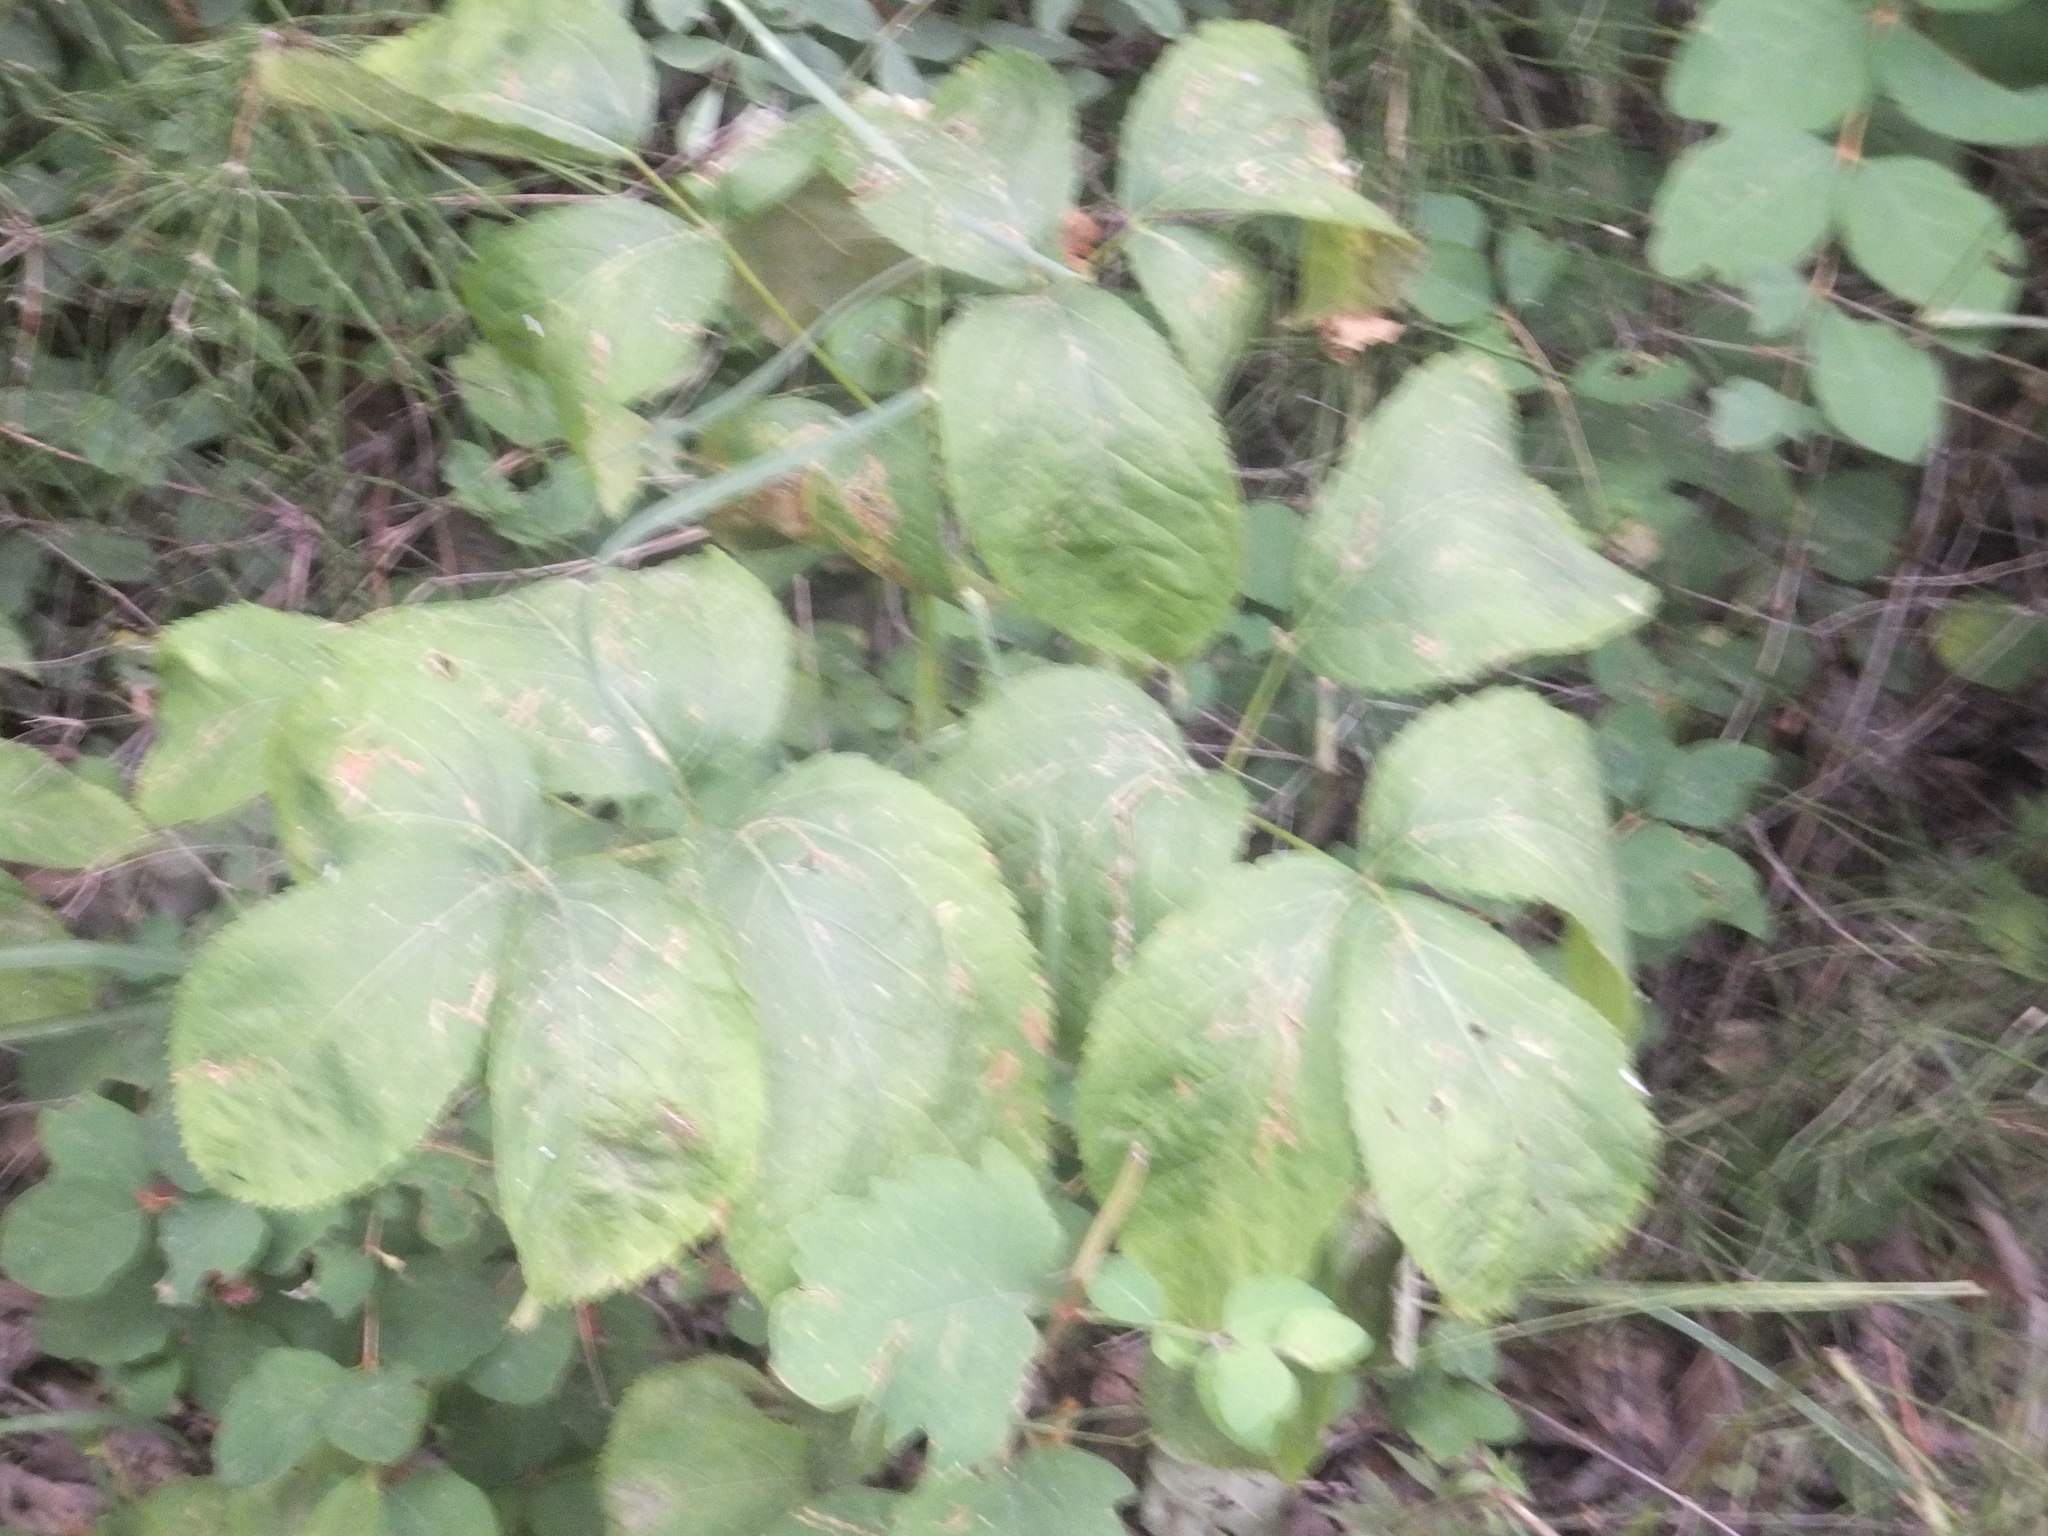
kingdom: Plantae
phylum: Tracheophyta
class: Magnoliopsida
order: Apiales
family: Araliaceae
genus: Aralia
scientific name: Aralia nudicaulis
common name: Wild sarsaparilla
